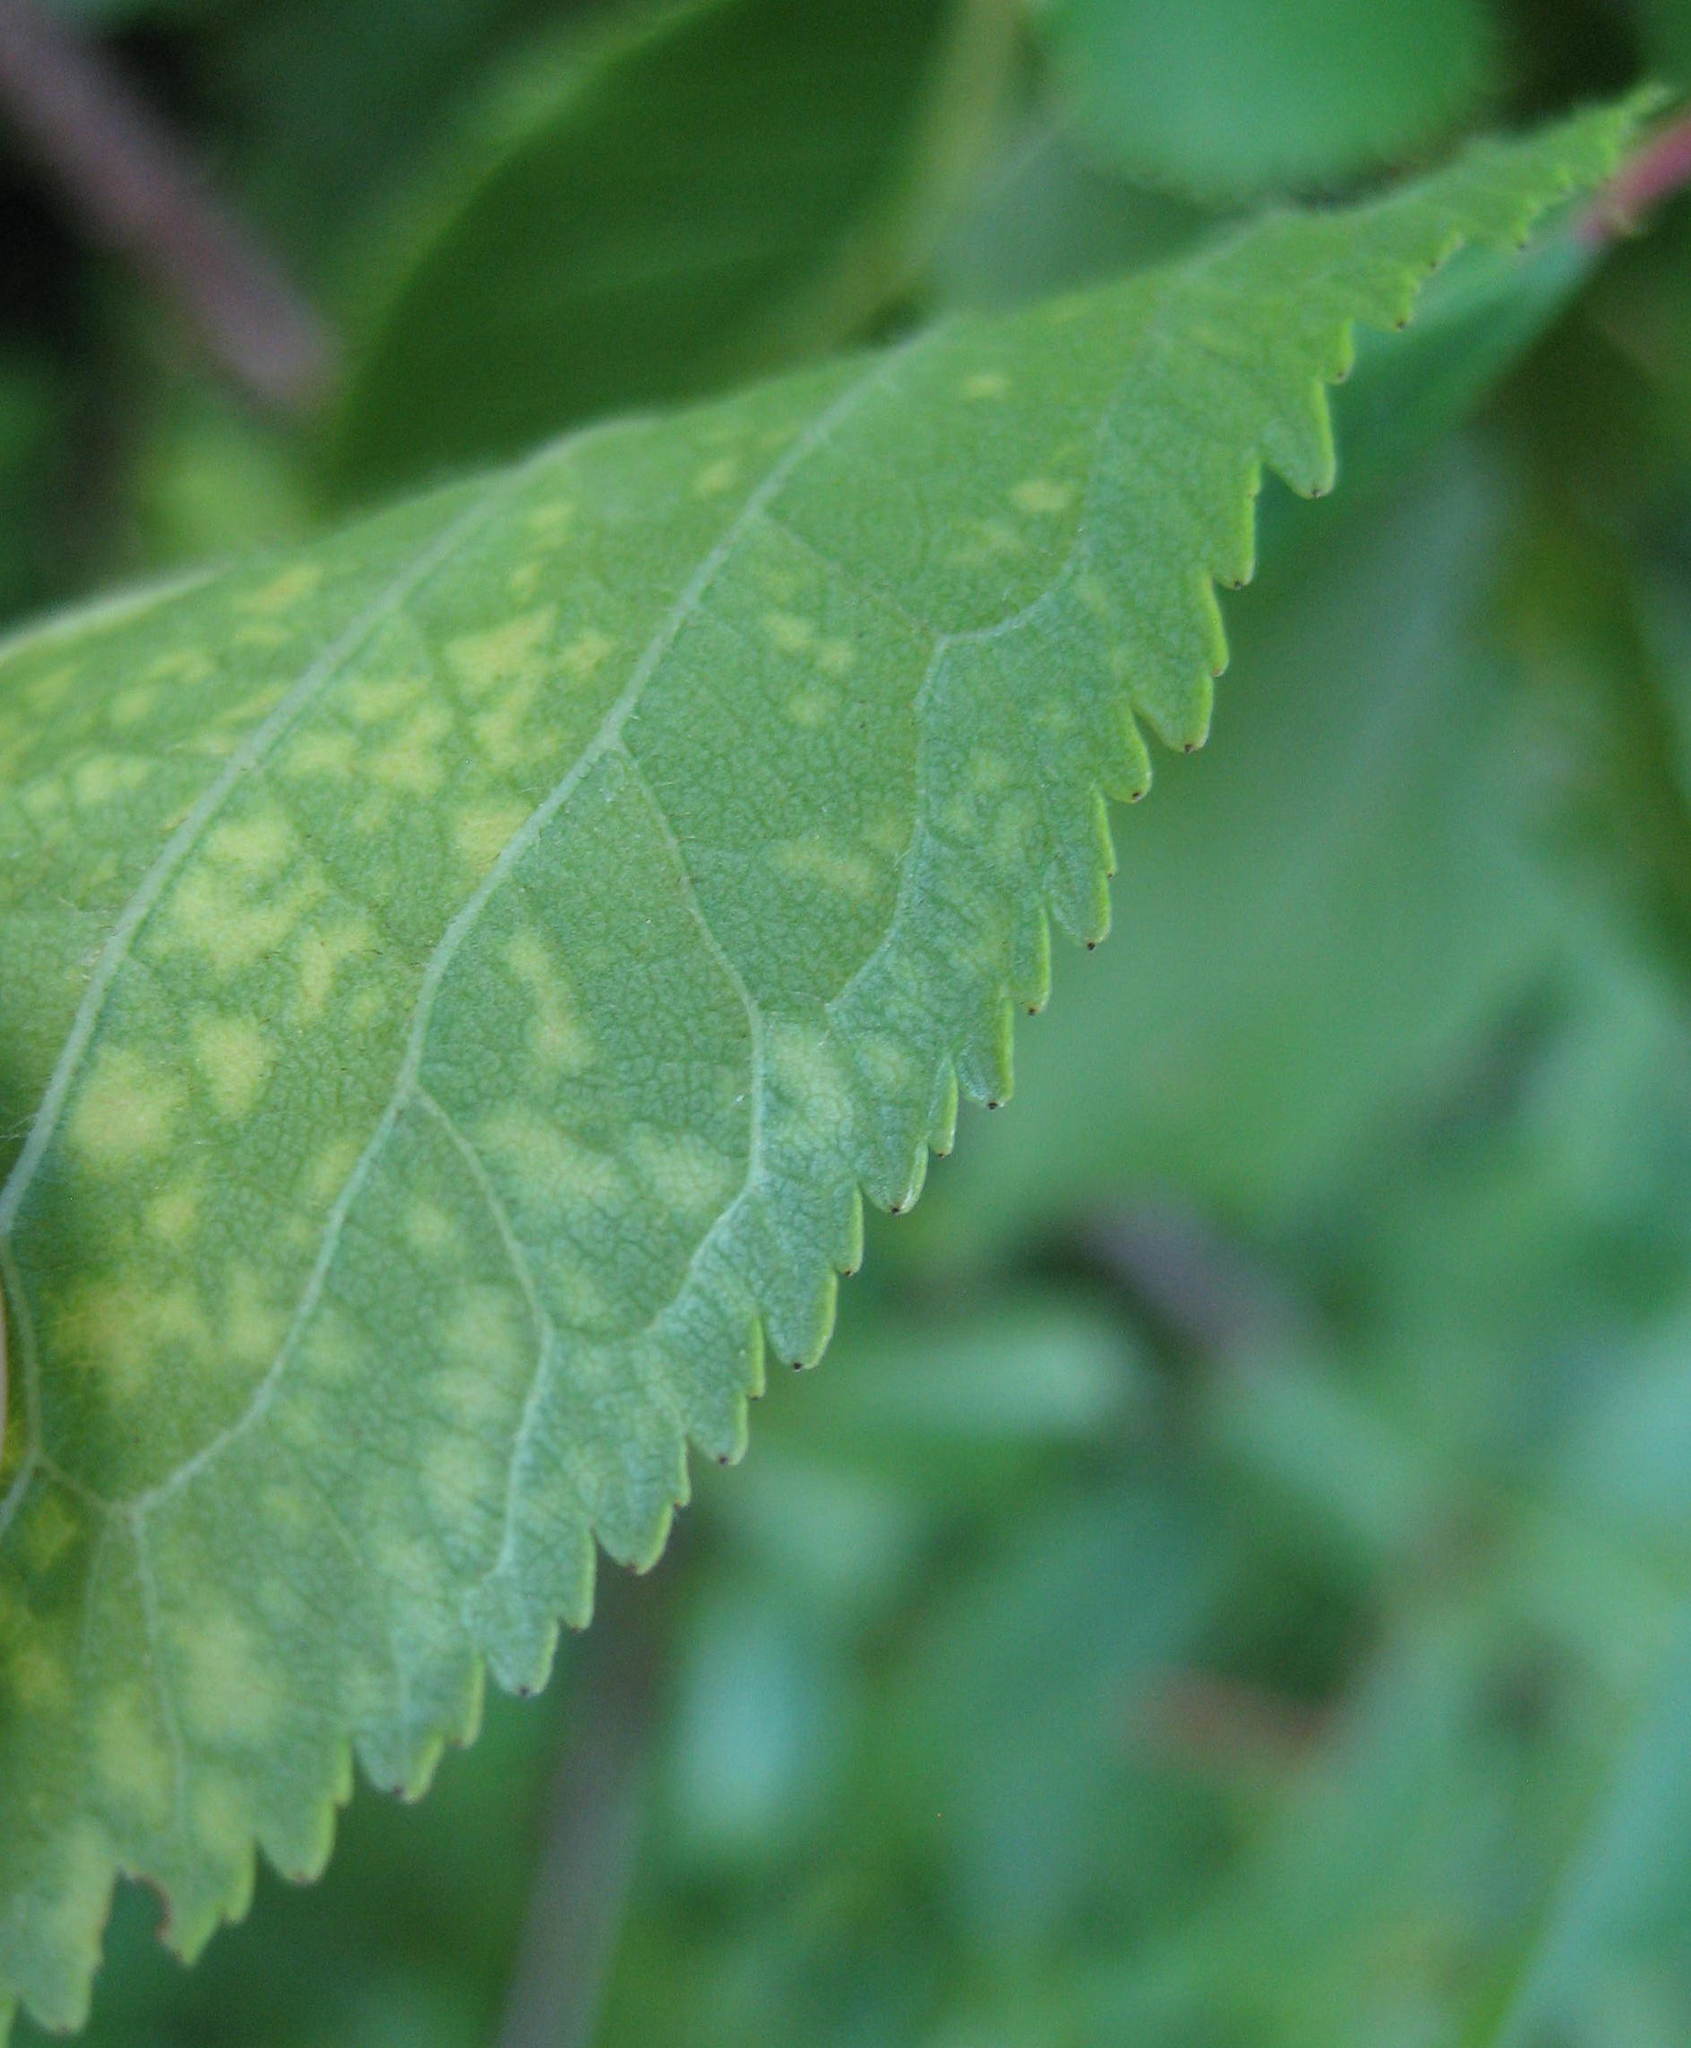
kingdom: Plantae
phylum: Tracheophyta
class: Magnoliopsida
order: Rosales
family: Rosaceae
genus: Prunus
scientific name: Prunus nigra
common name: Black plum
